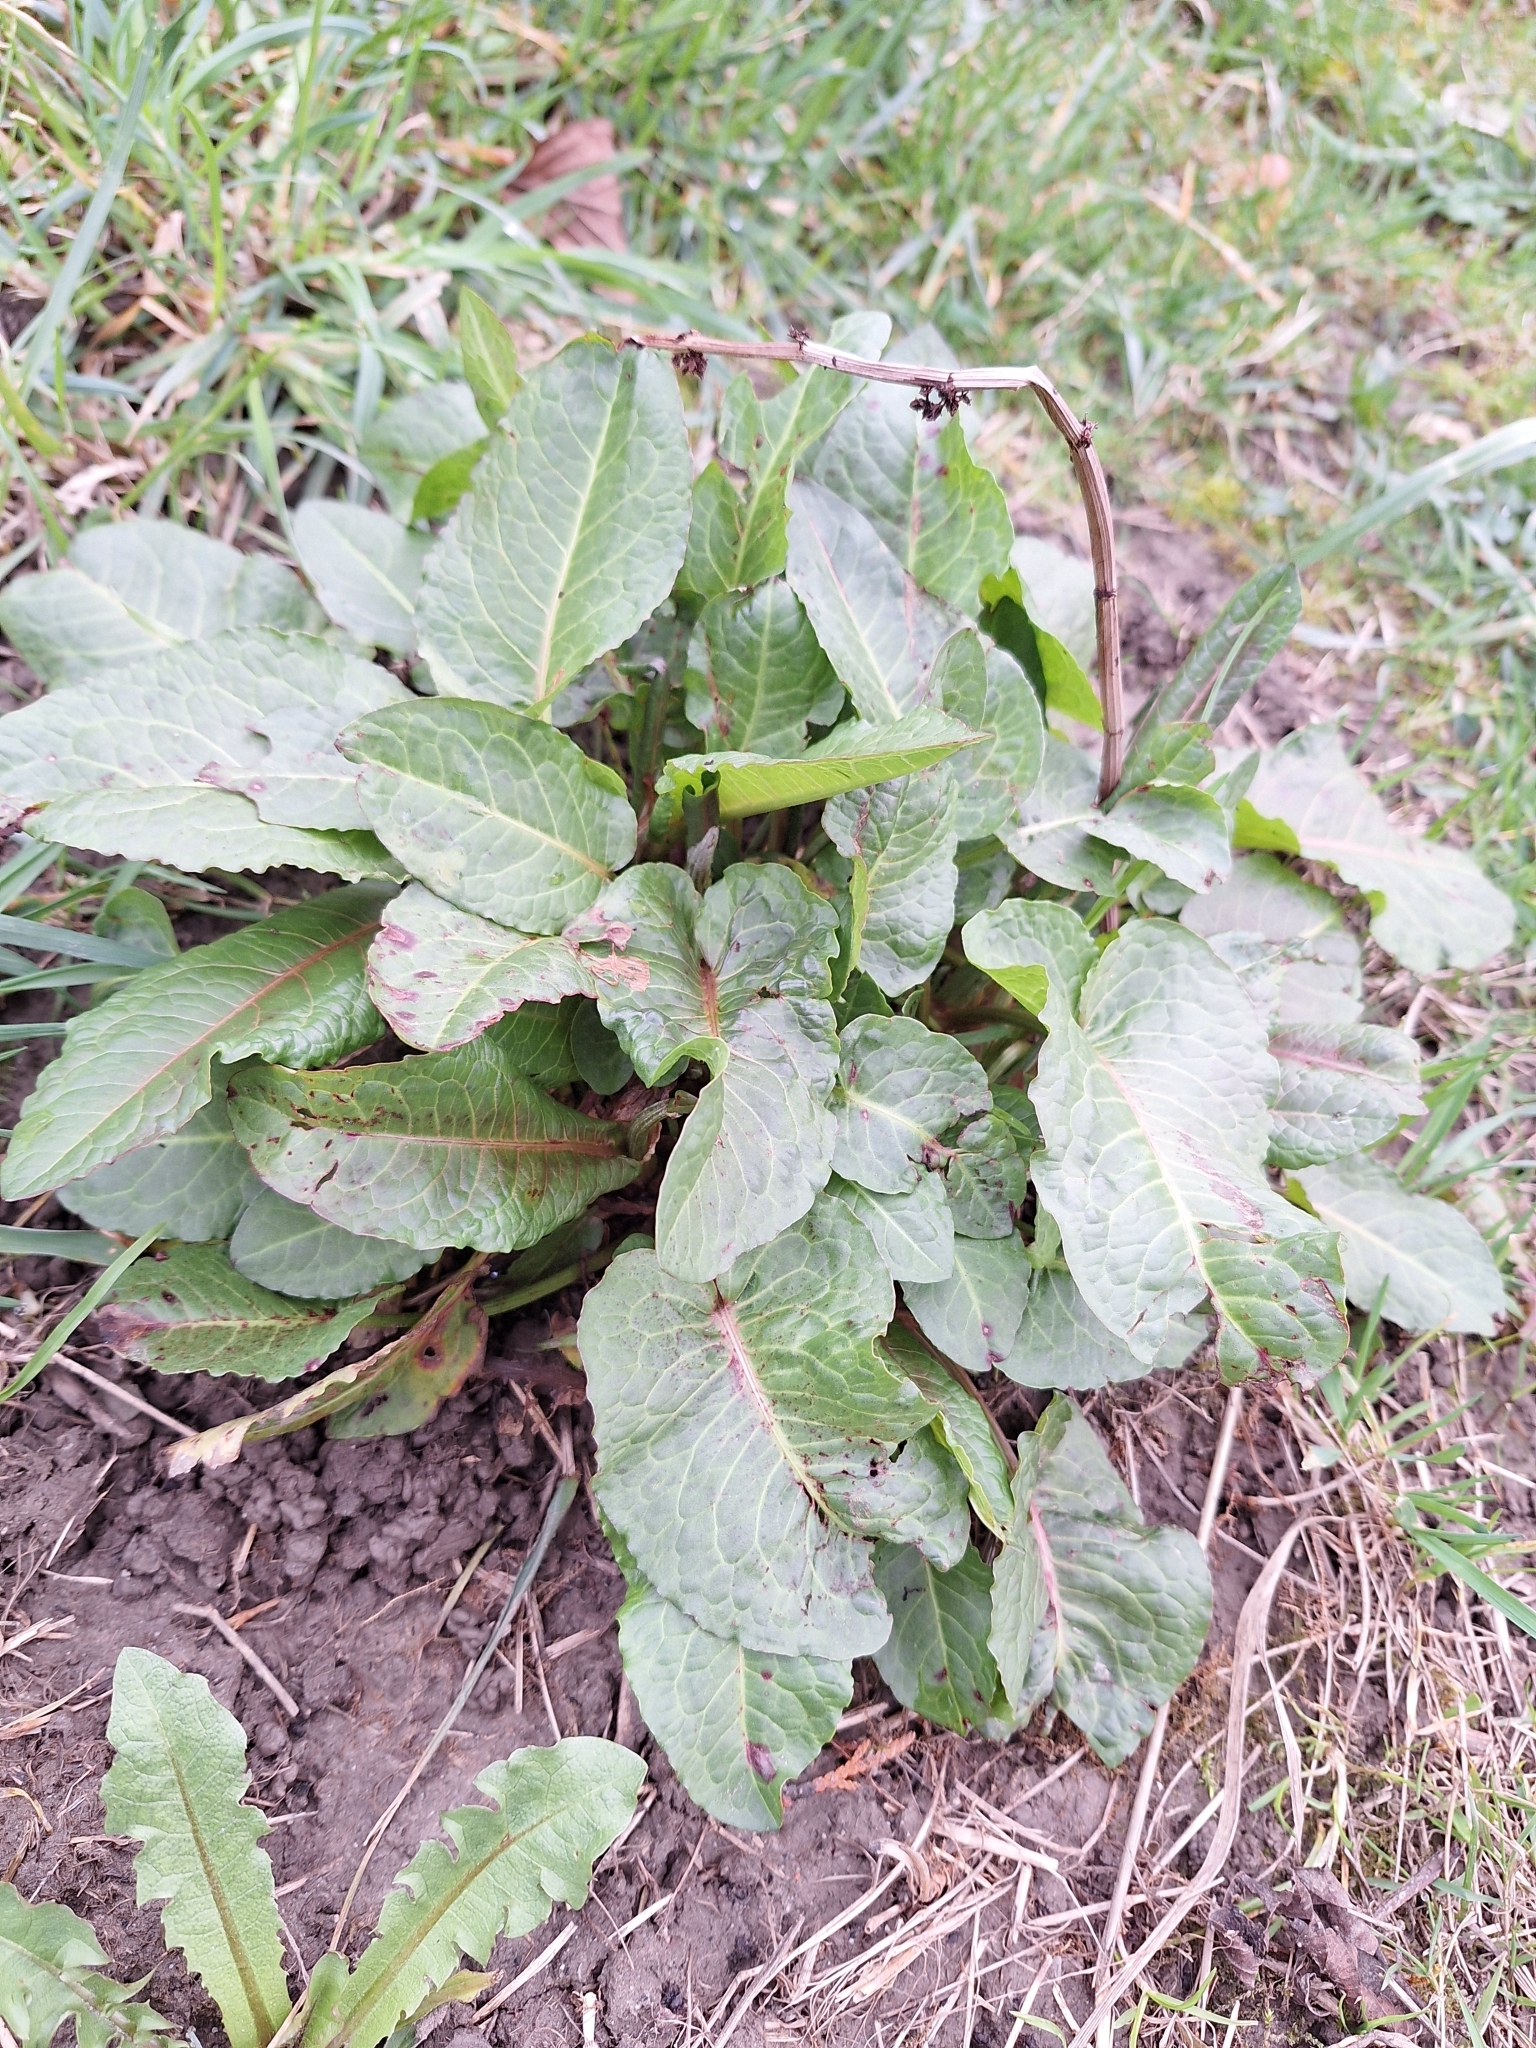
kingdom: Plantae
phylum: Tracheophyta
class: Magnoliopsida
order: Caryophyllales
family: Polygonaceae
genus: Rumex
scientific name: Rumex obtusifolius
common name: Bitter dock
